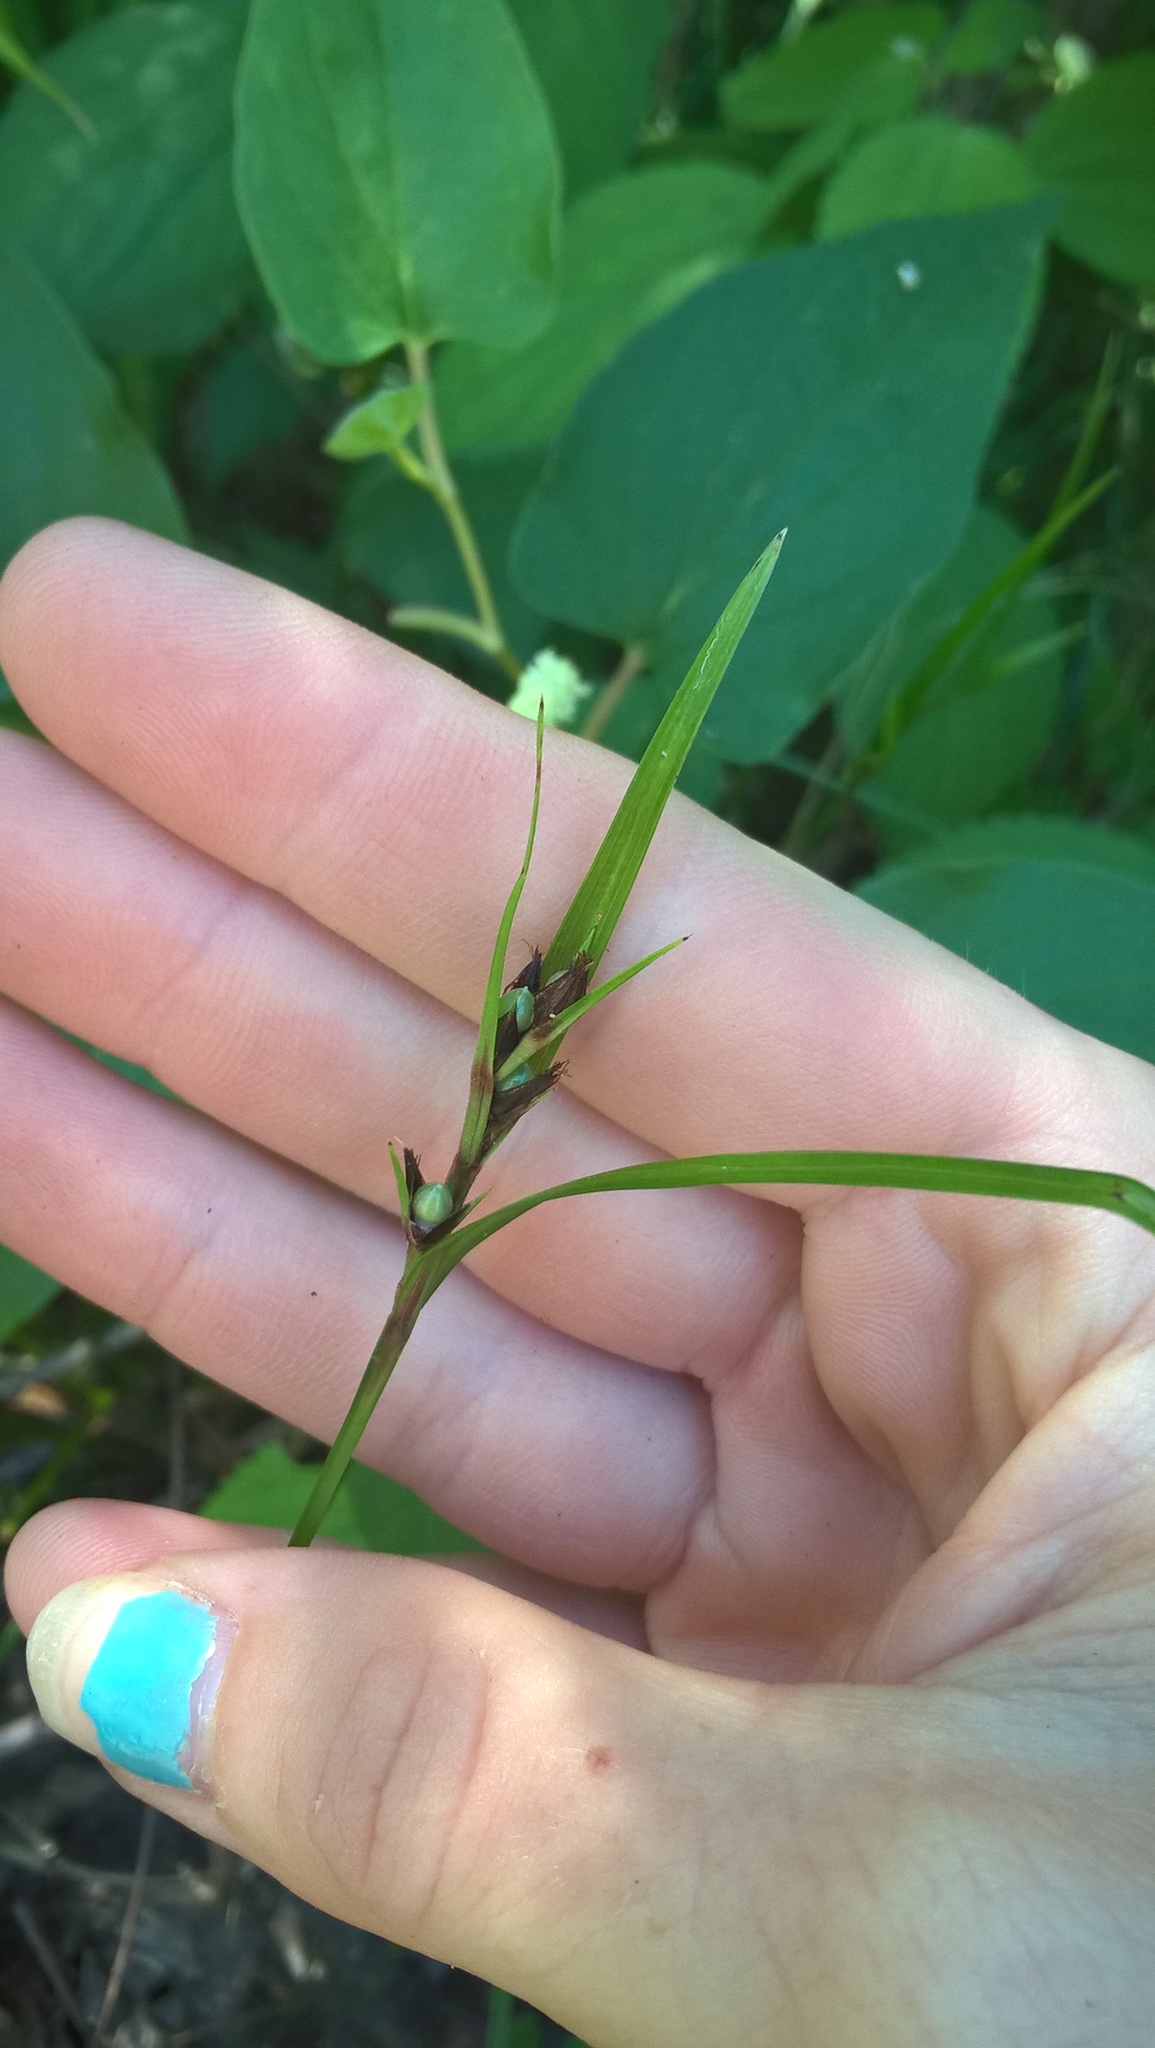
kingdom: Plantae
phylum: Tracheophyta
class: Liliopsida
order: Poales
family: Cyperaceae
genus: Scleria
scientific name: Scleria triglomerata
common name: Whip nutrush
